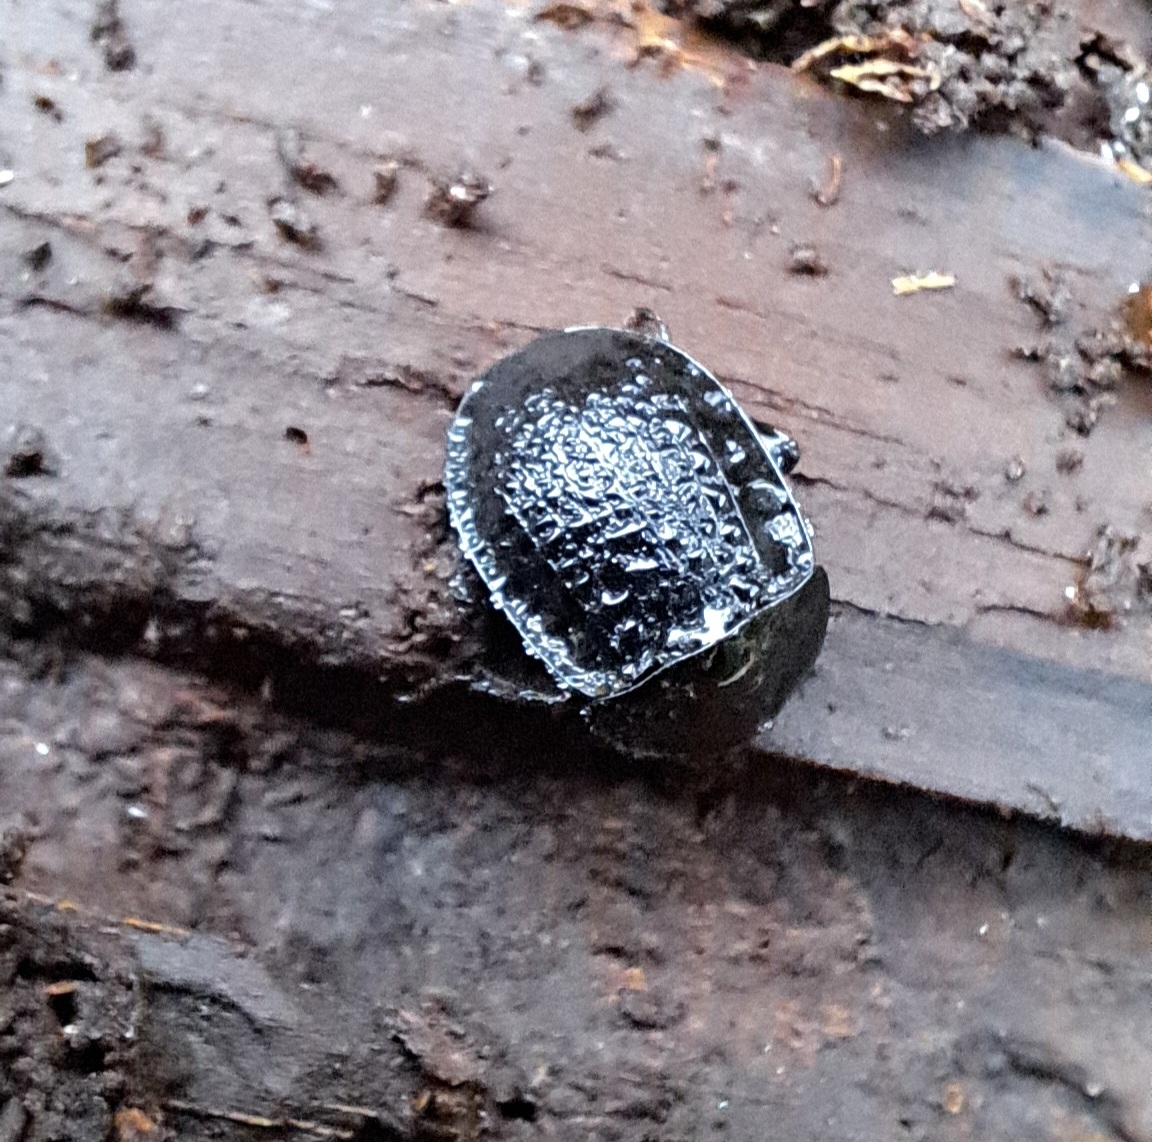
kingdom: Animalia
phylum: Arthropoda
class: Insecta
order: Coleoptera
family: Staphylinidae
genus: Silpha
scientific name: Silpha atrata
